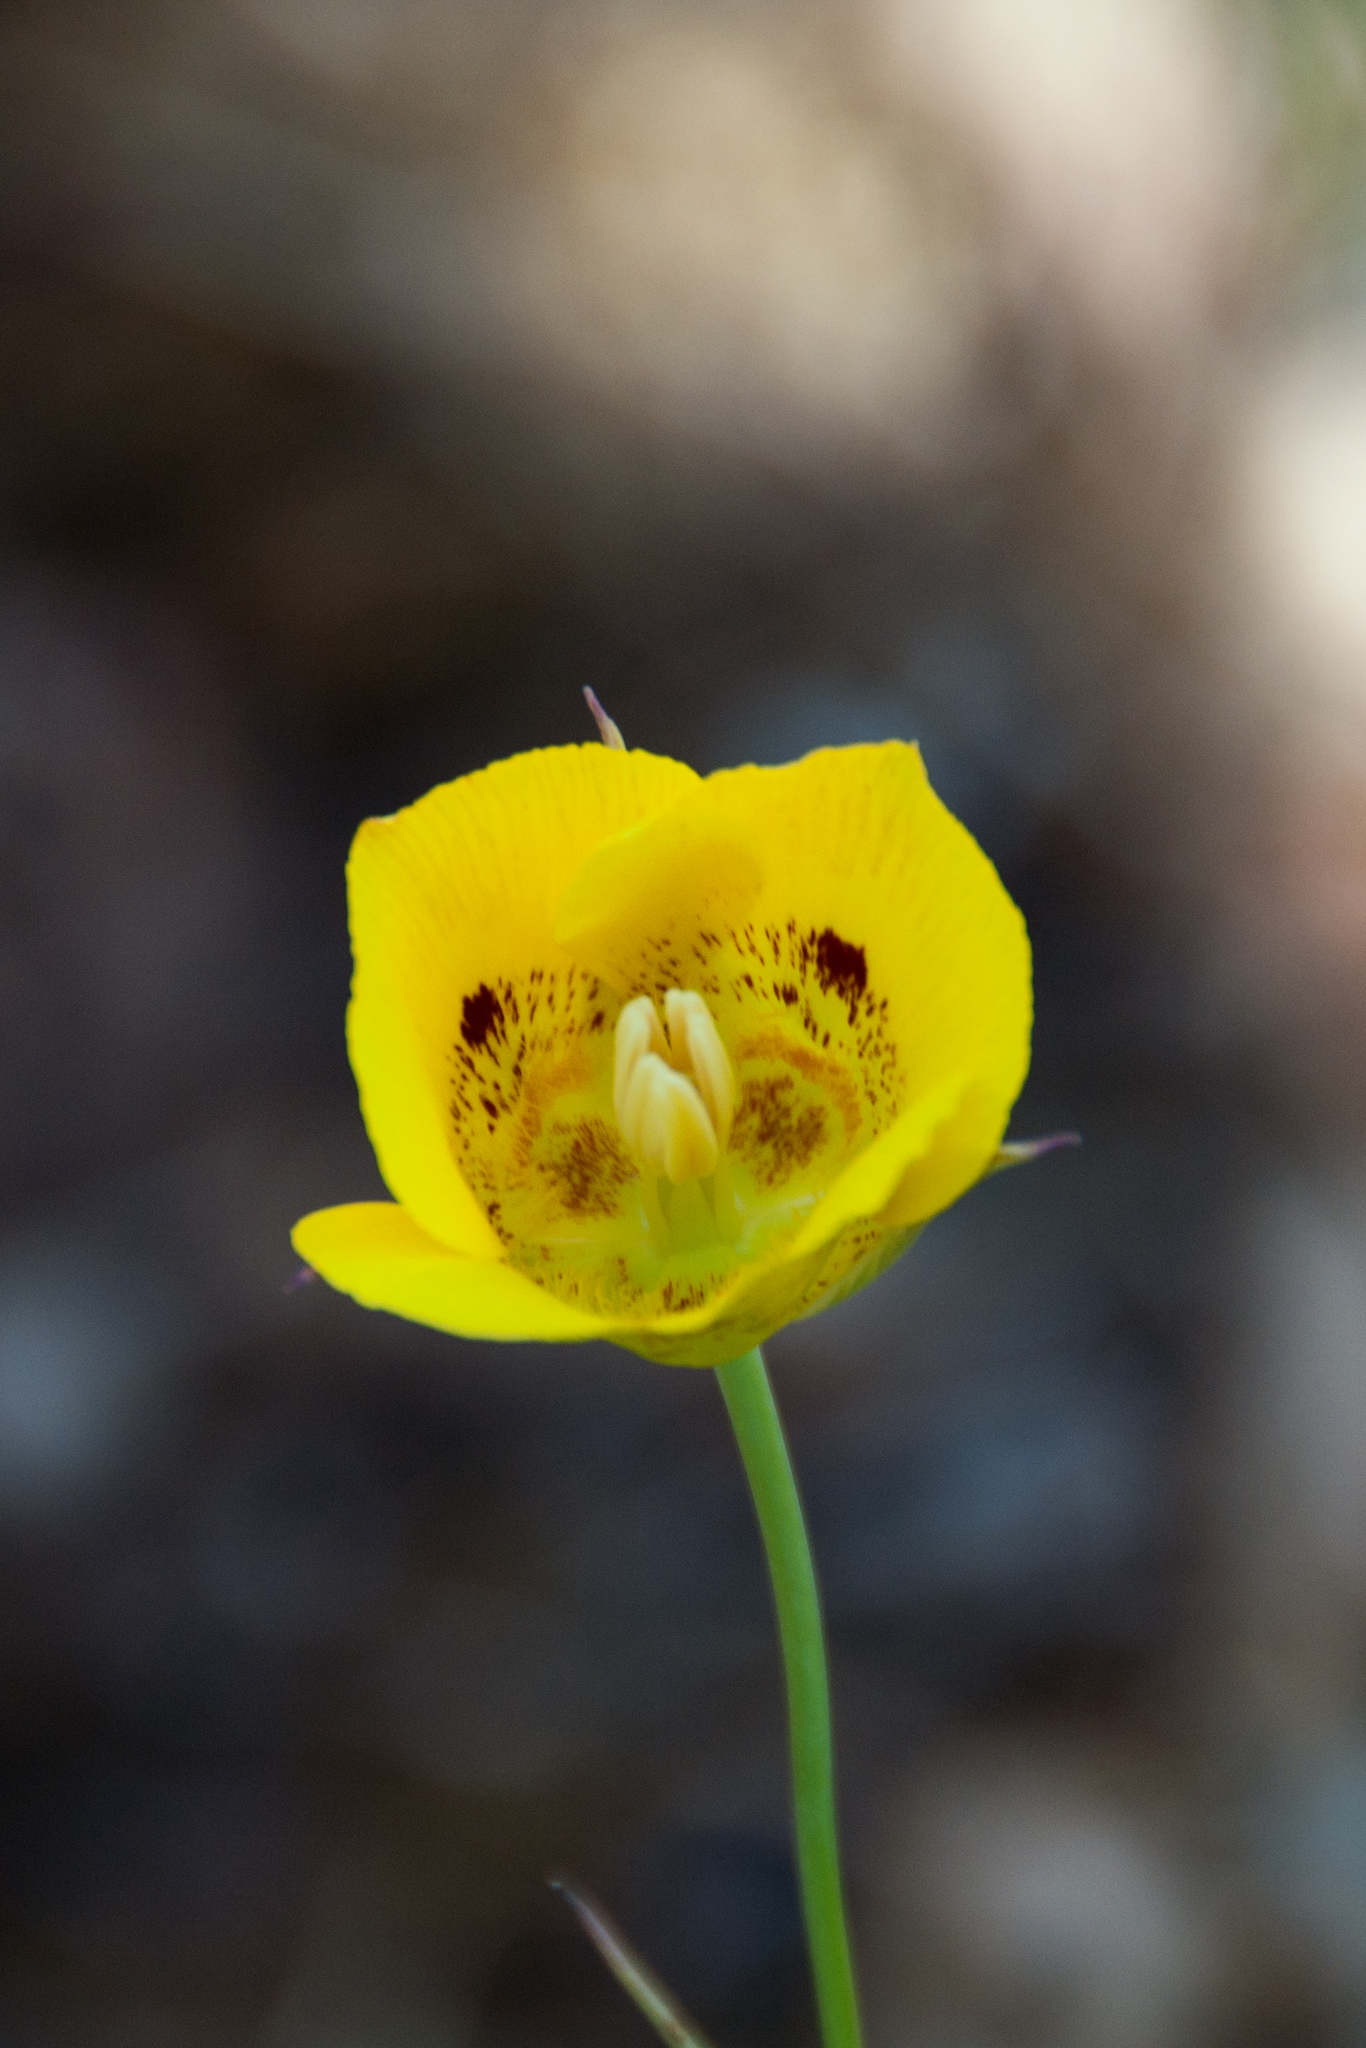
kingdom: Plantae
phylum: Tracheophyta
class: Liliopsida
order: Liliales
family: Liliaceae
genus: Calochortus
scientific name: Calochortus luteus
